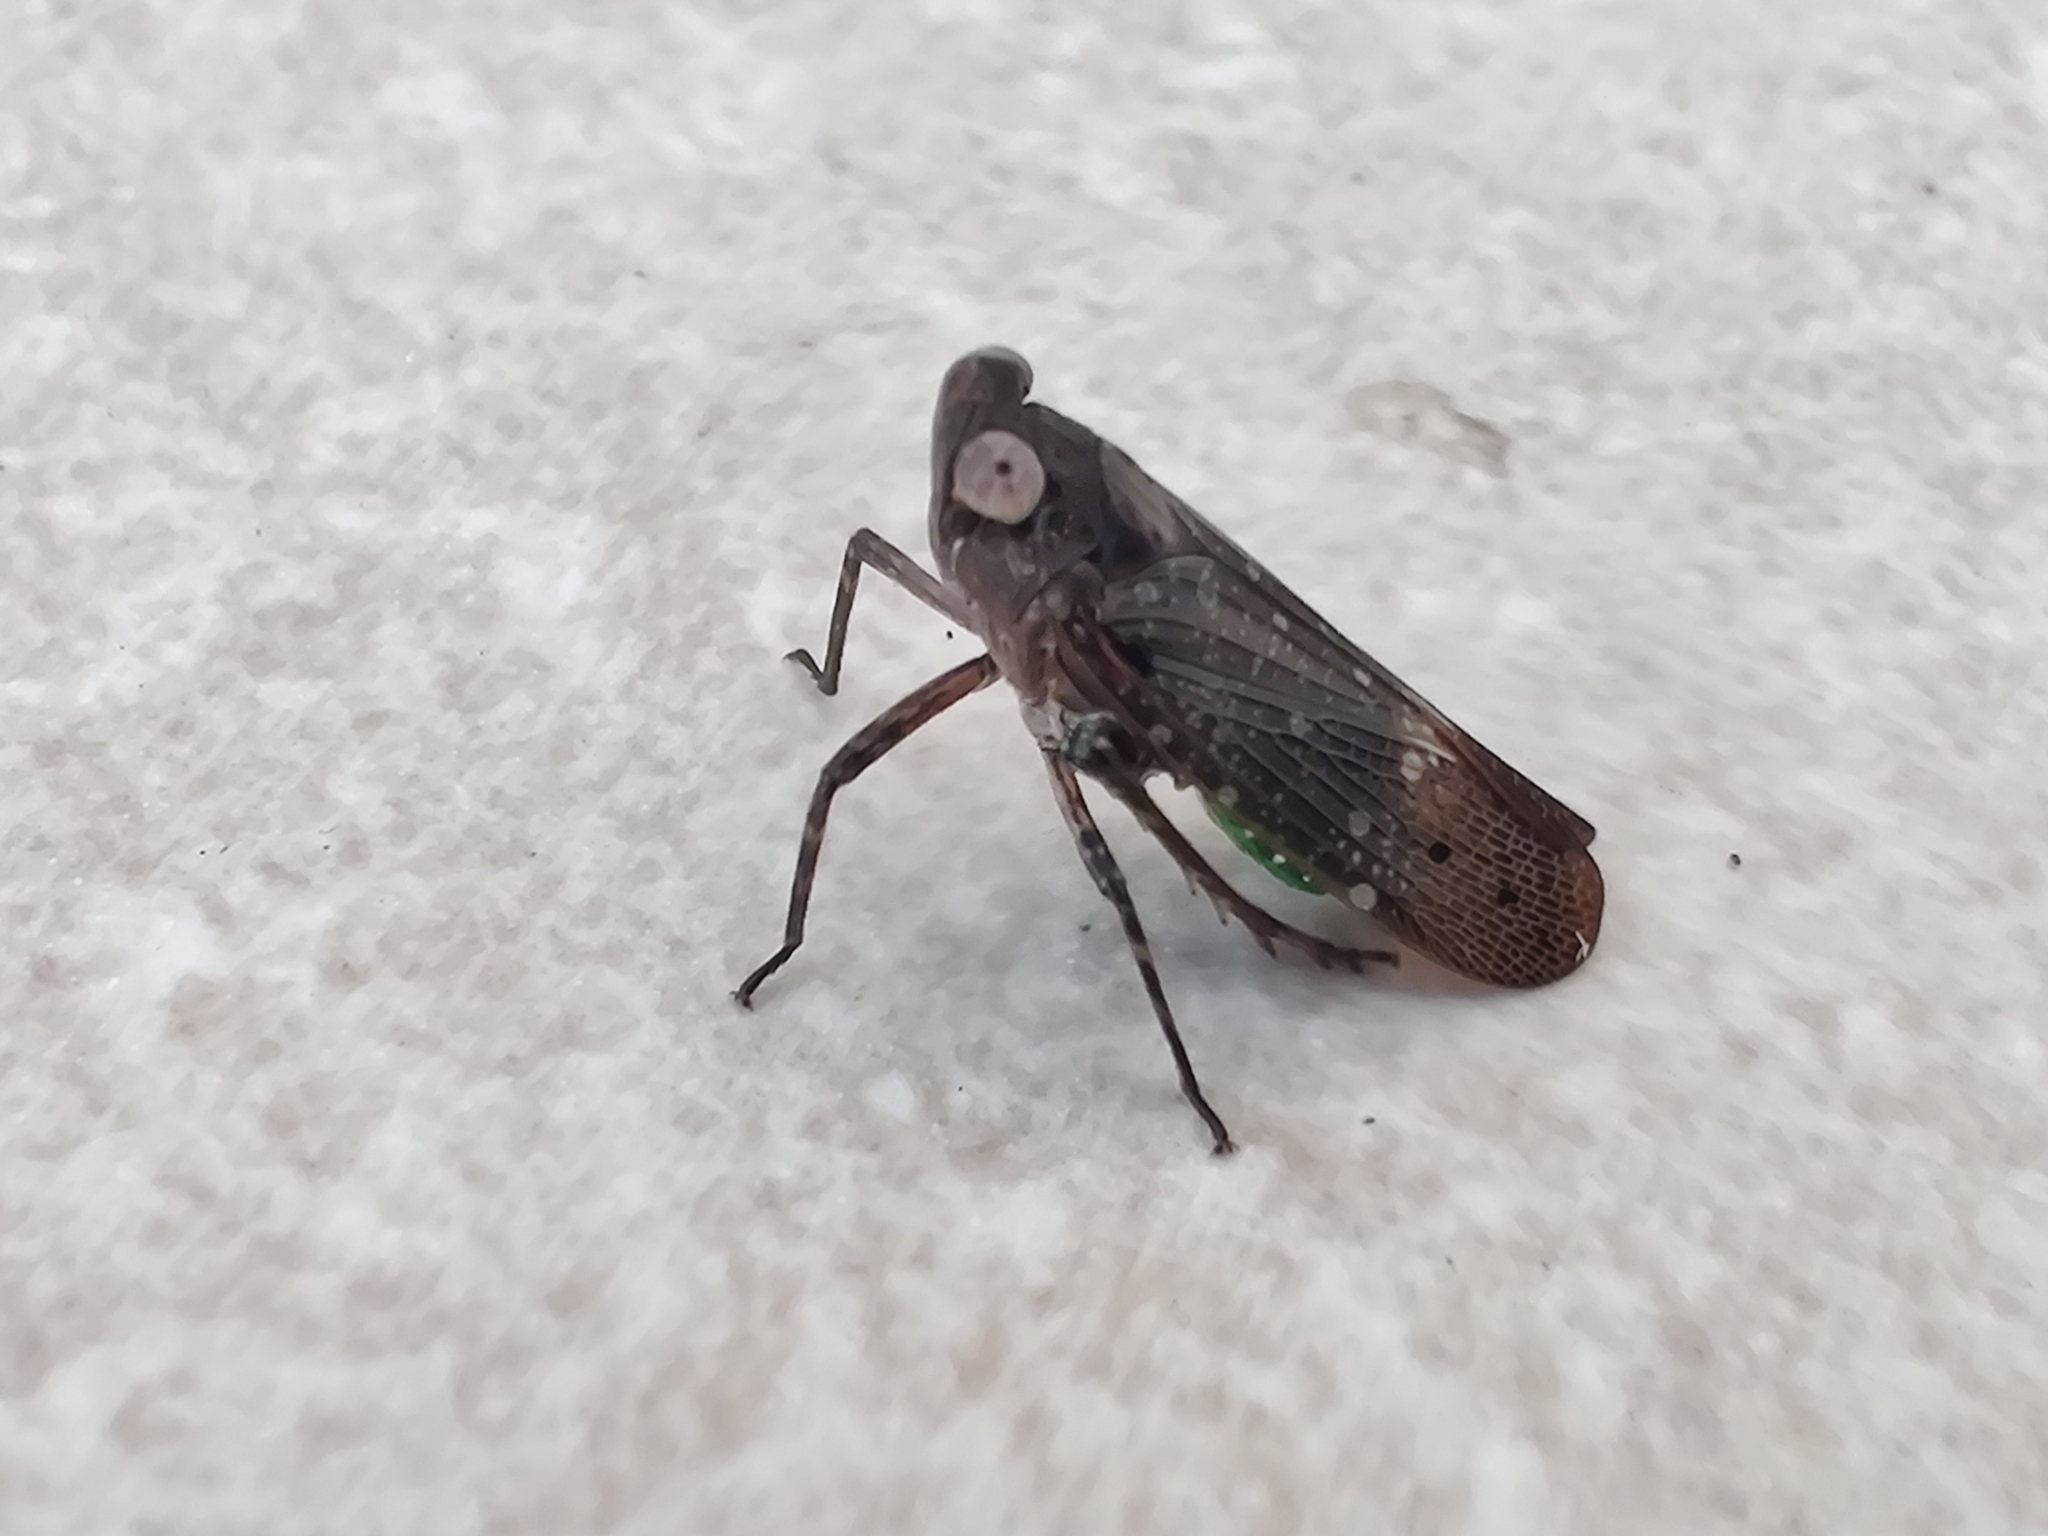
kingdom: Animalia
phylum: Arthropoda
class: Insecta
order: Hemiptera
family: Fulgoridae
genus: Desudaba
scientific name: Desudaba psittacus
